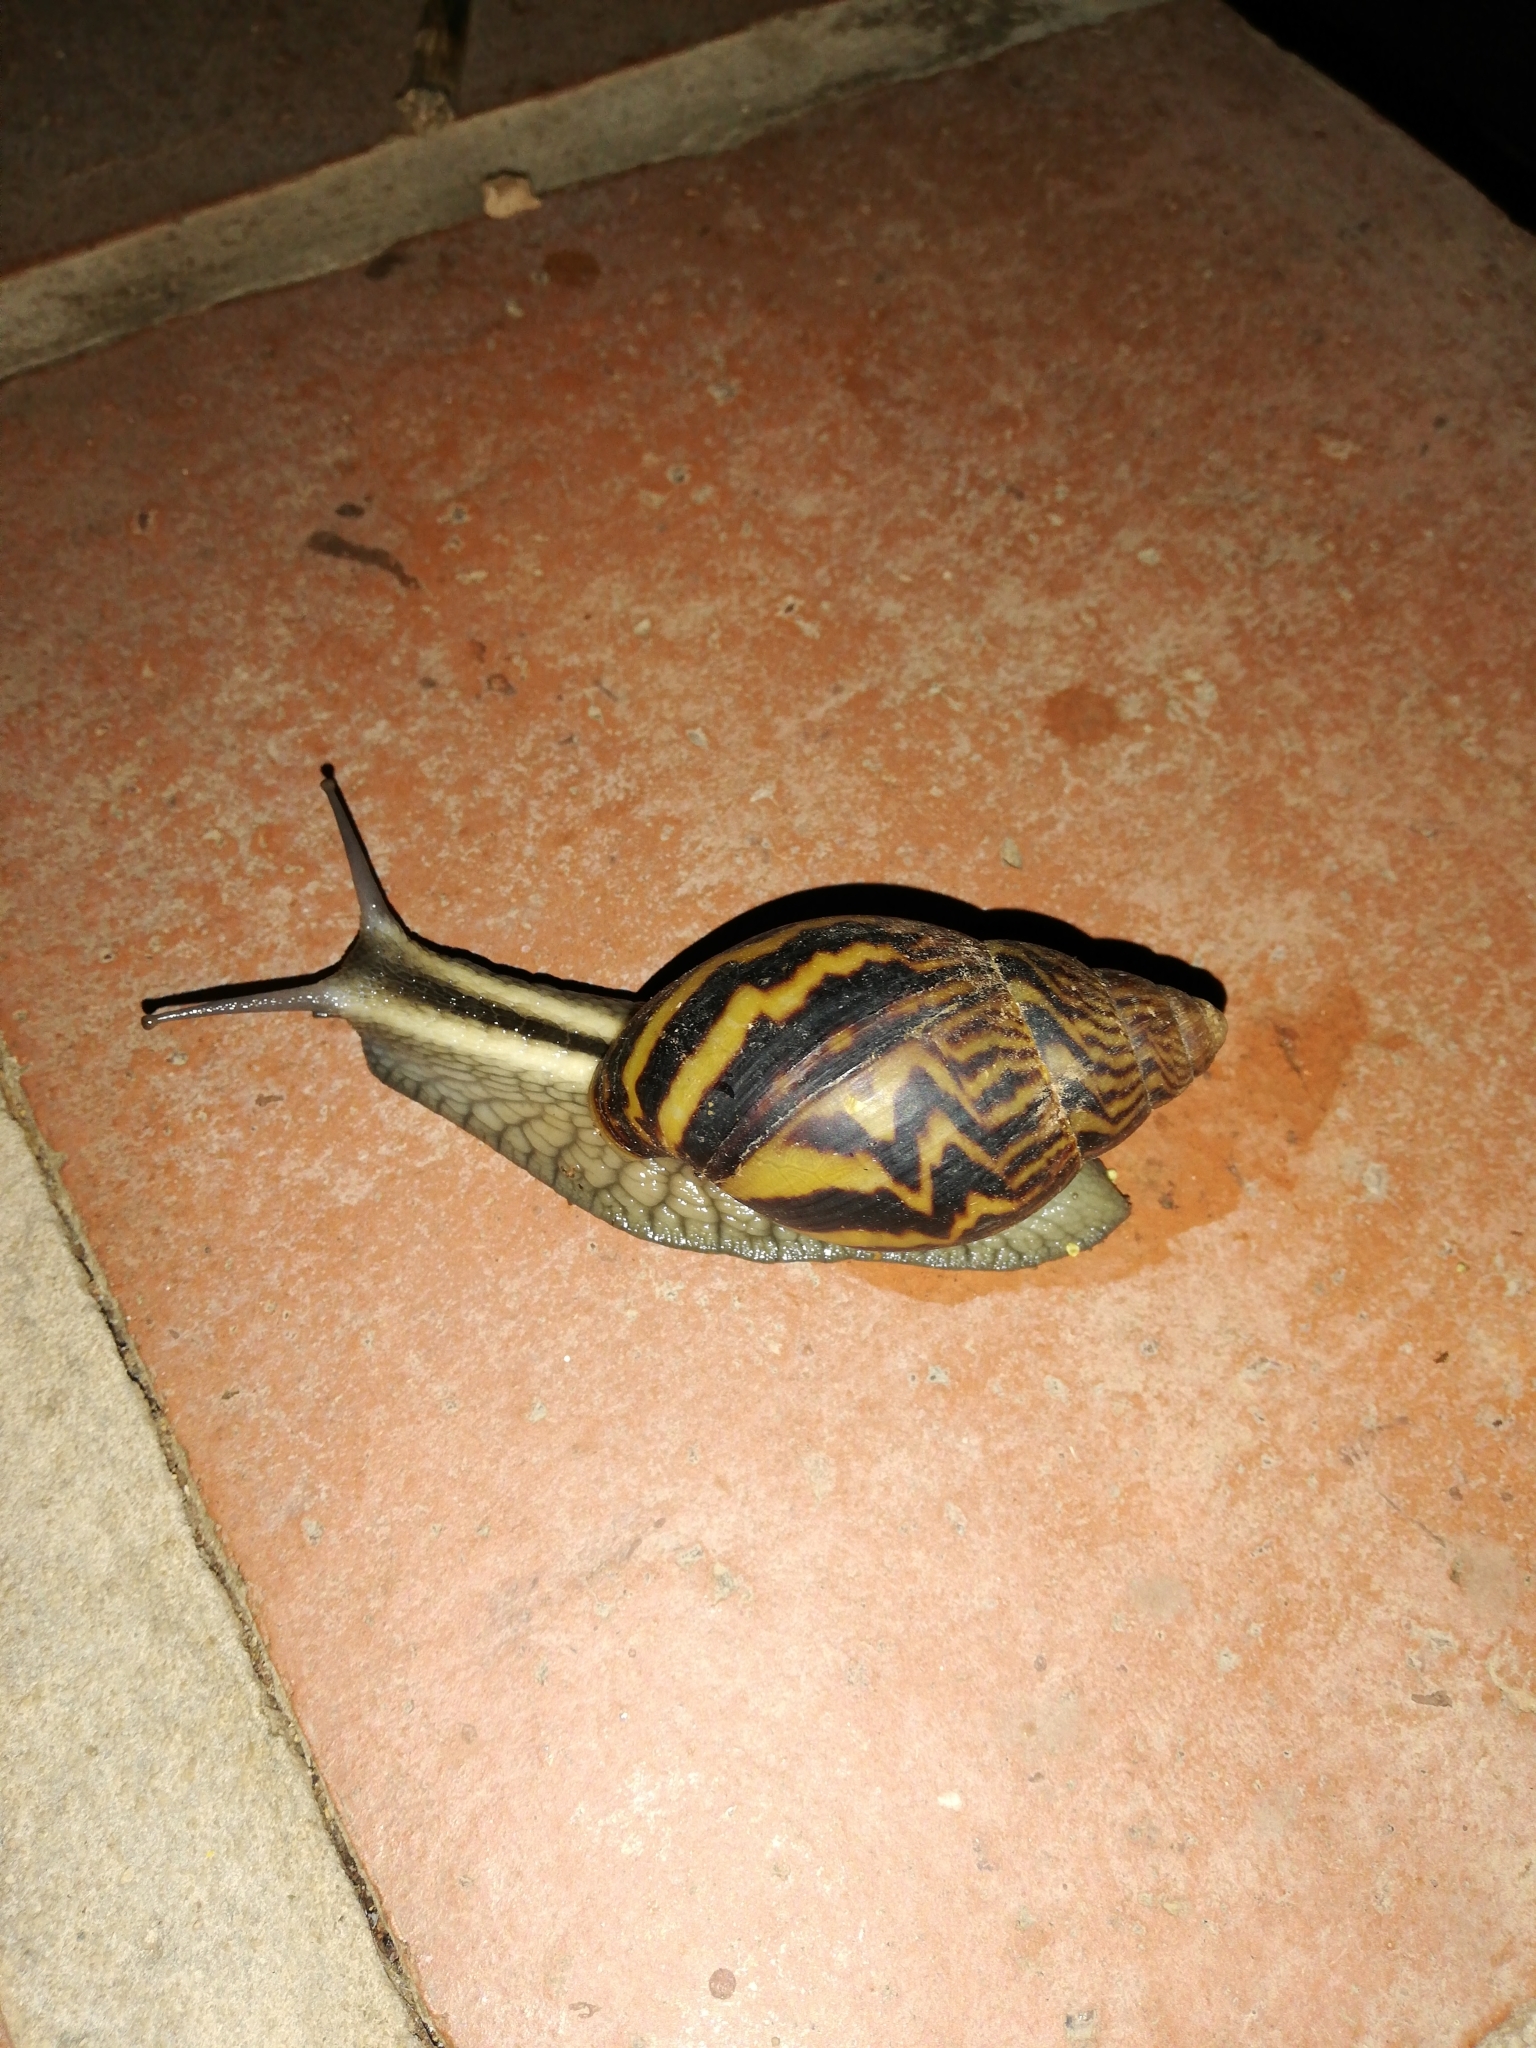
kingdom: Animalia
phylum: Mollusca
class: Gastropoda
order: Stylommatophora
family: Achatinidae
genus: Cochlitoma
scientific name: Cochlitoma zebra
